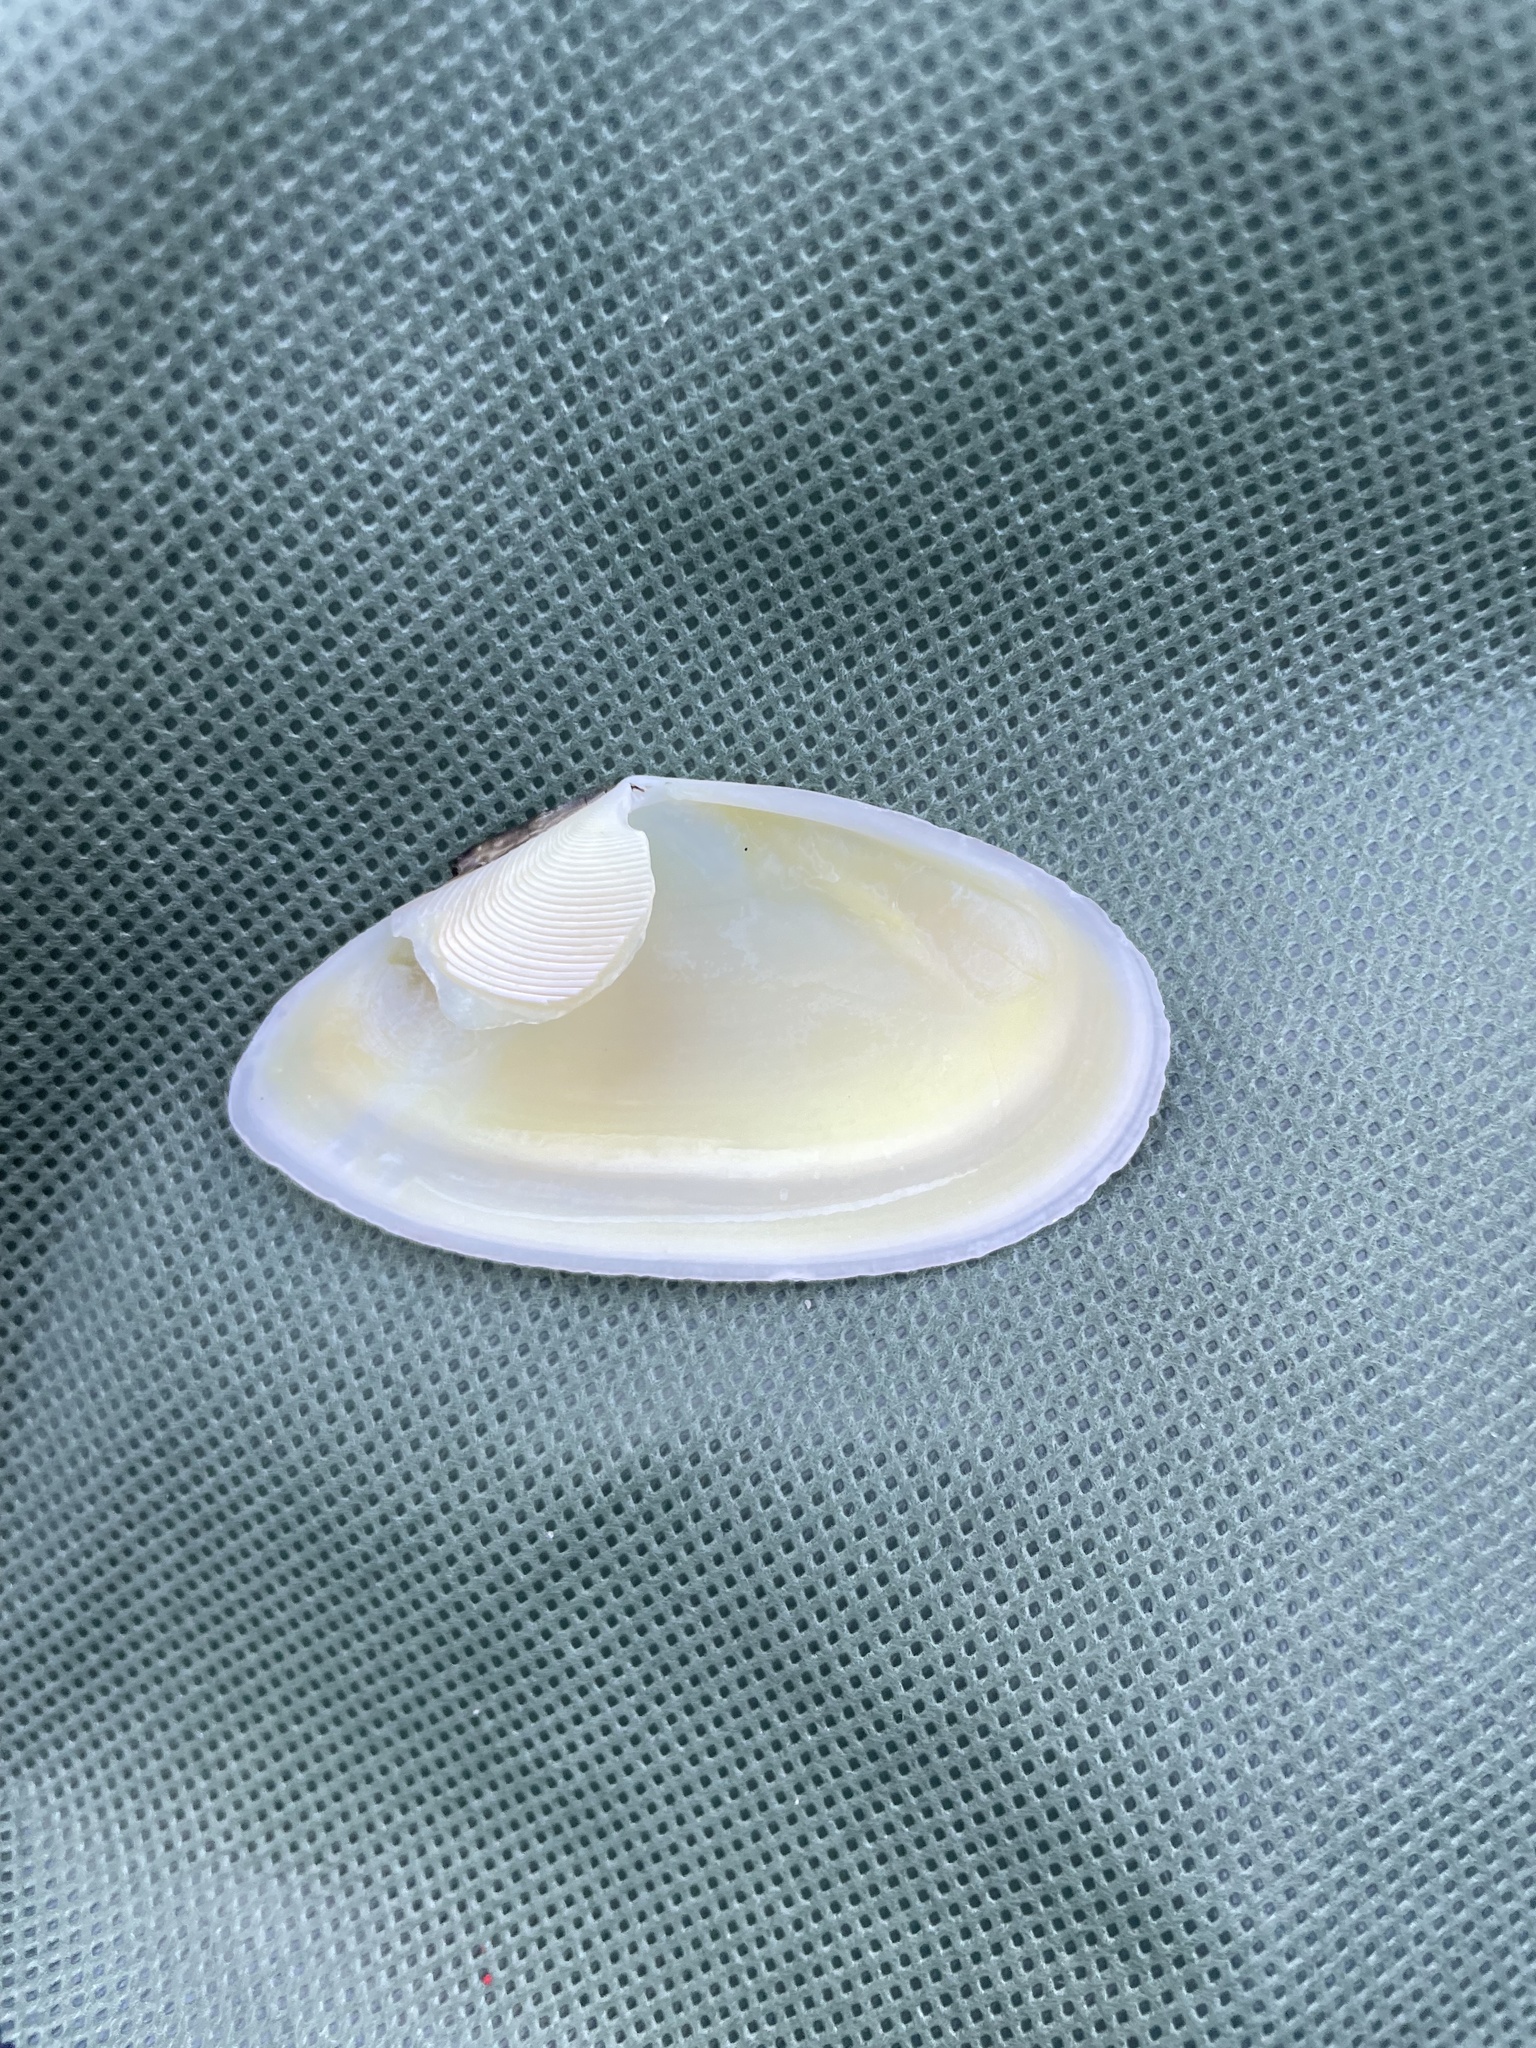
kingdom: Animalia
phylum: Mollusca
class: Bivalvia
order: Cardiida
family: Tellinidae
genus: Eurytellina
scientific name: Eurytellina alternata
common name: Alternate tellin
